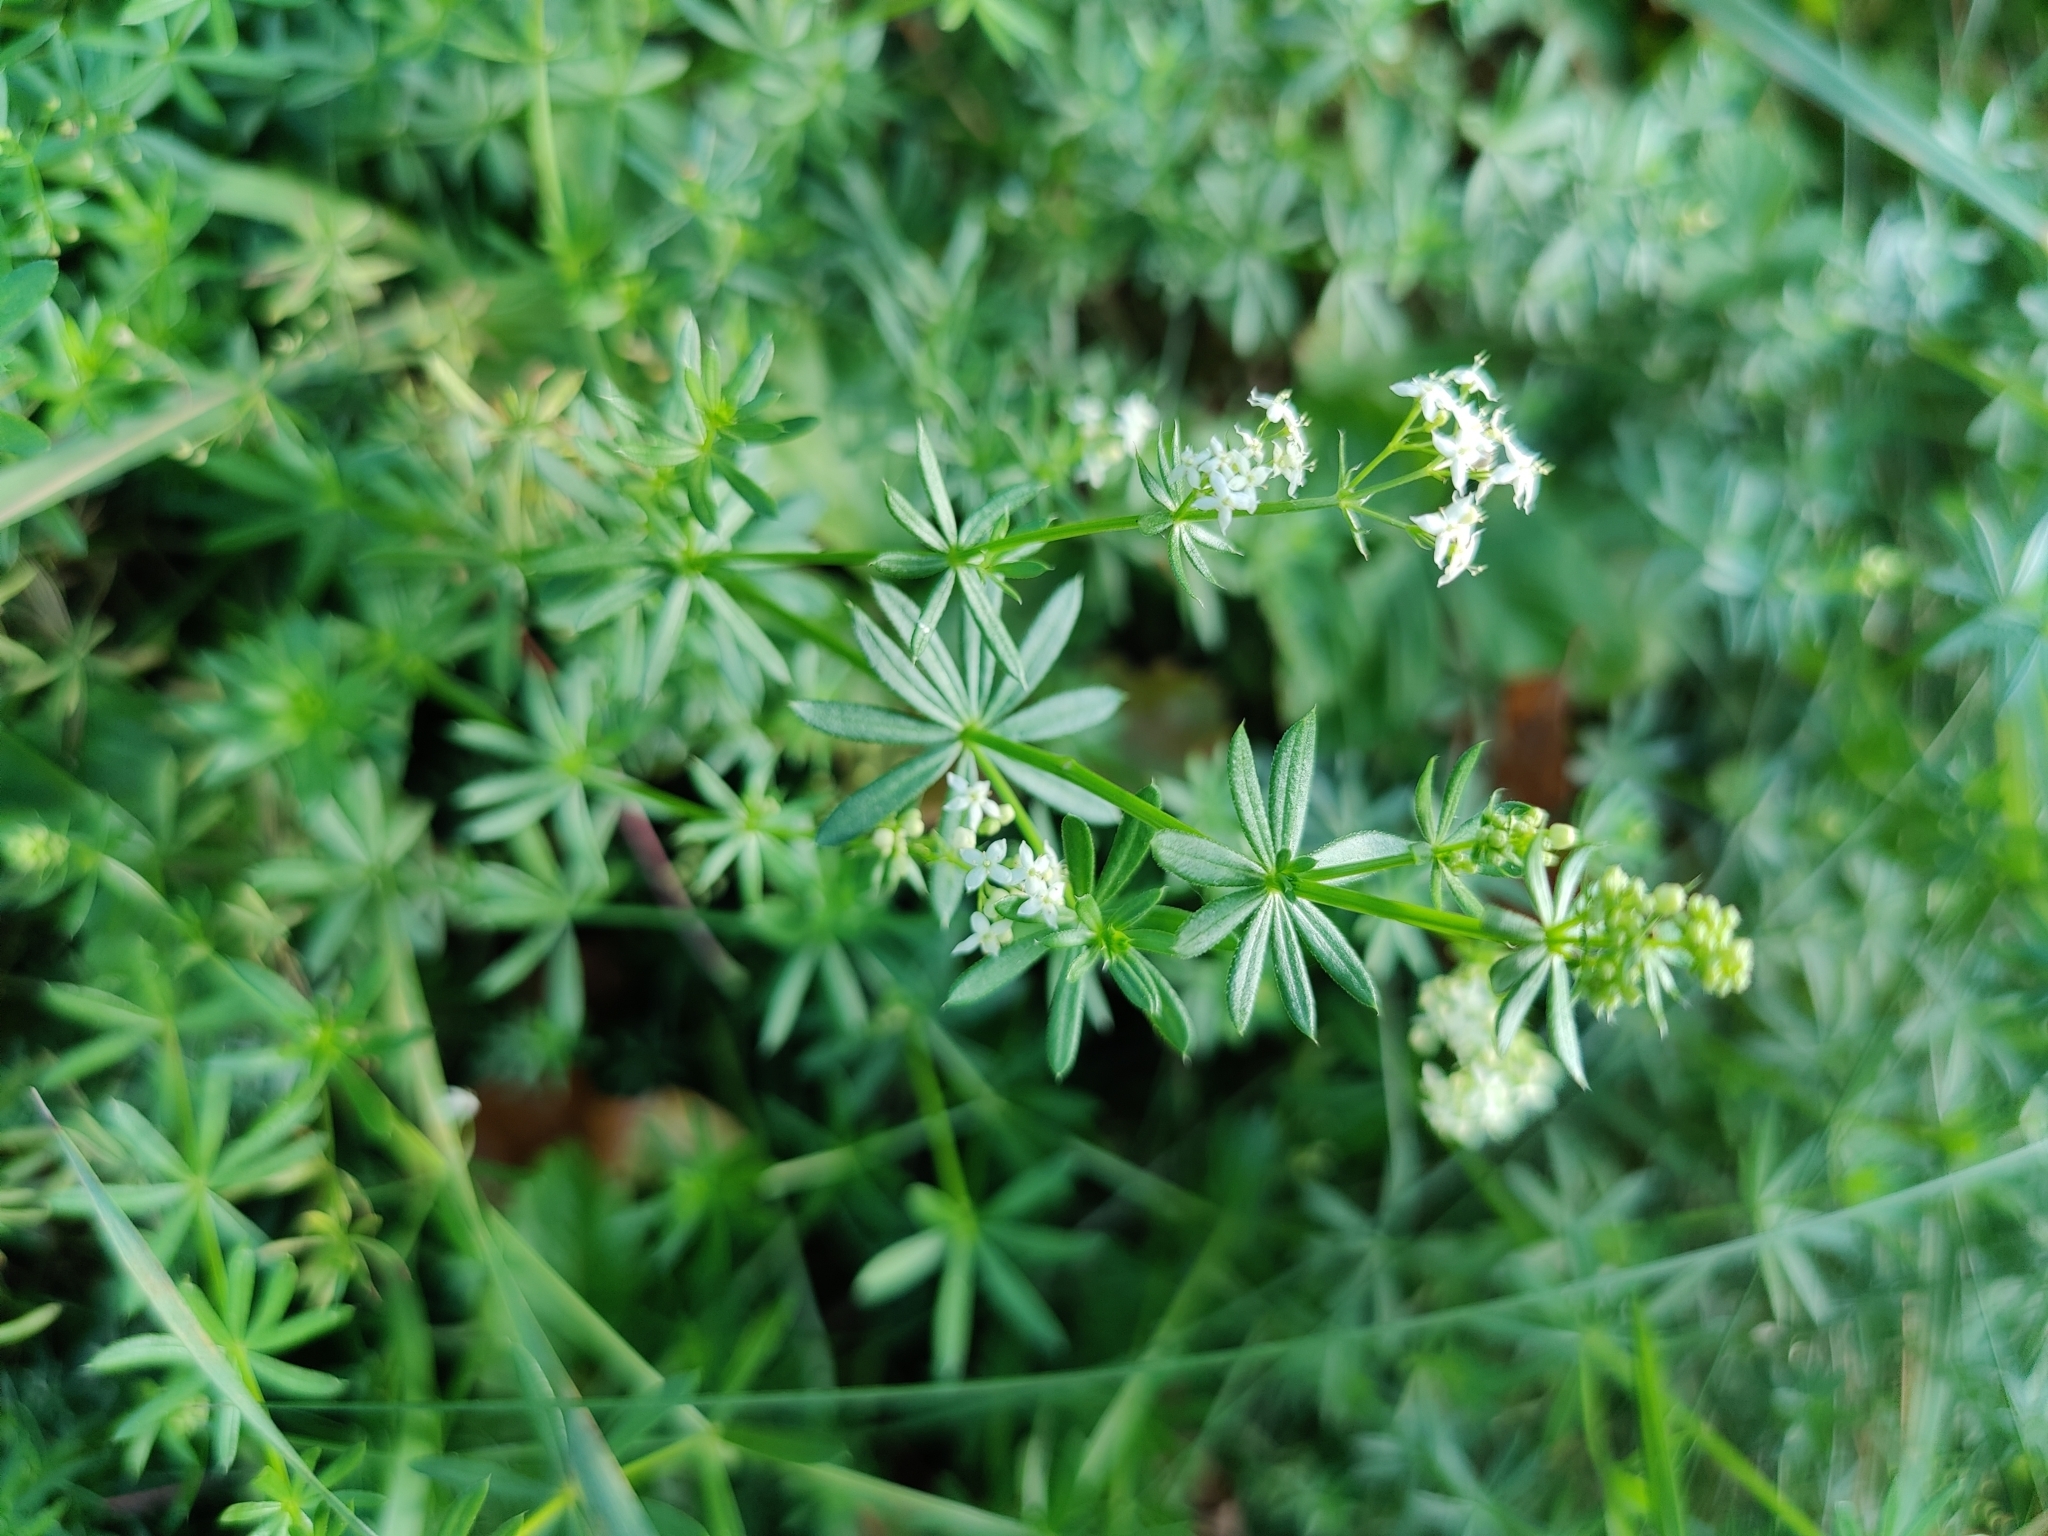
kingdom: Plantae
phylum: Tracheophyta
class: Magnoliopsida
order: Gentianales
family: Rubiaceae
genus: Galium
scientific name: Galium mollugo
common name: Hedge bedstraw
